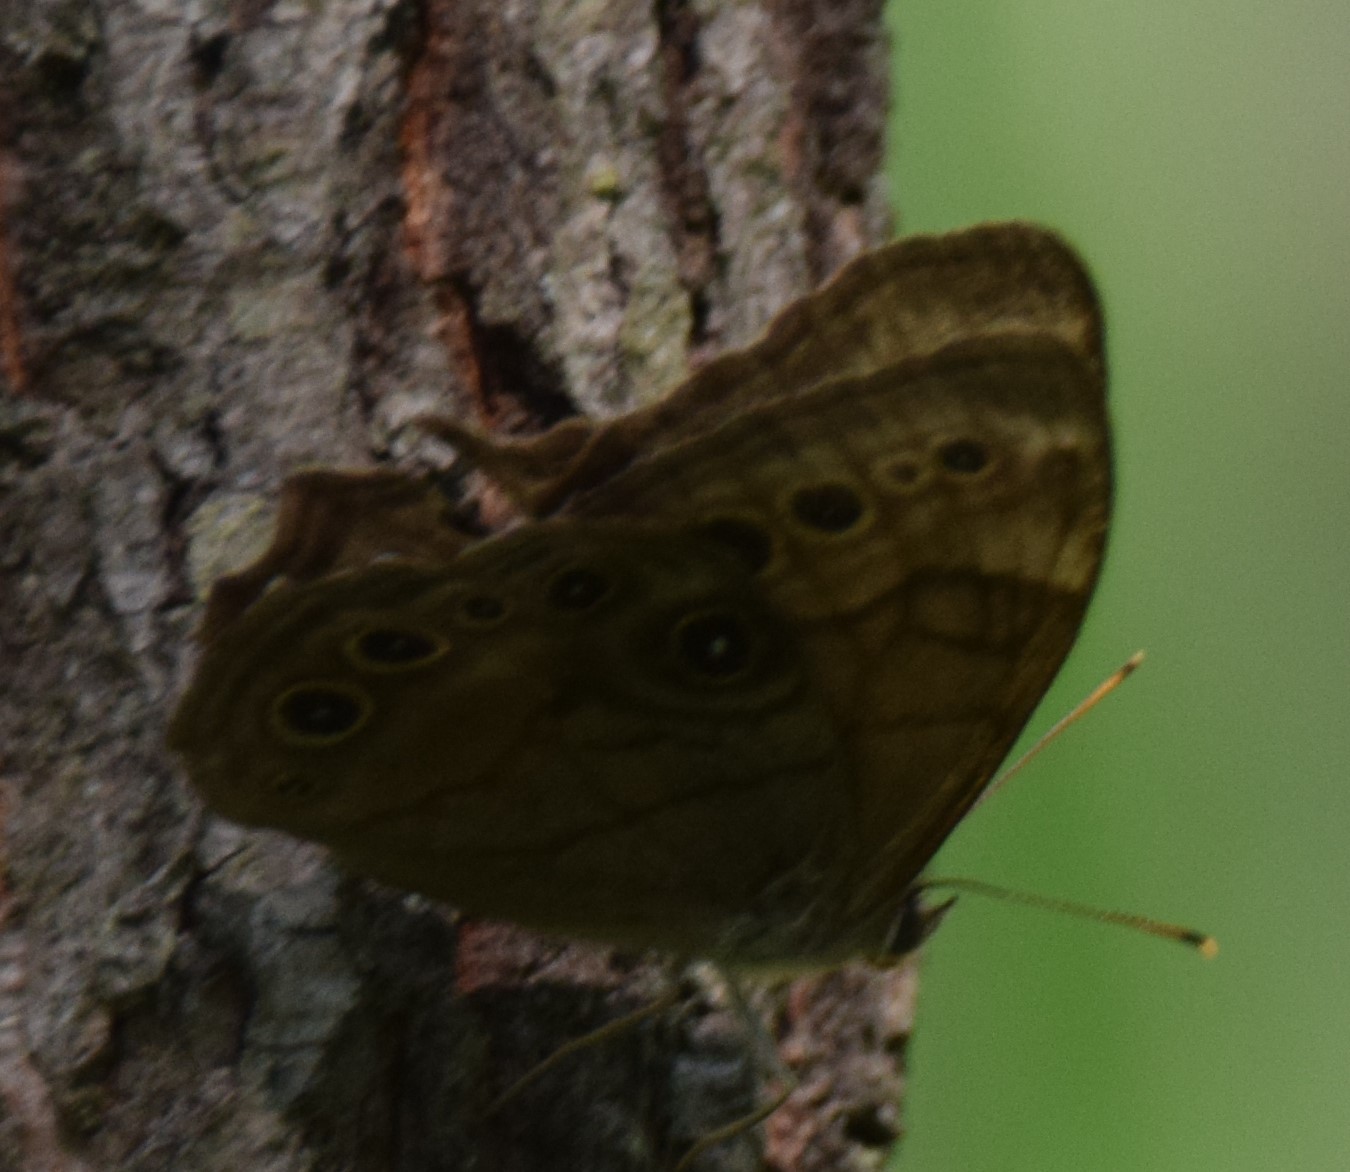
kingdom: Animalia
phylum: Arthropoda
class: Insecta
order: Lepidoptera
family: Nymphalidae
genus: Lethe
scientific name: Lethe anthedon
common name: Northern pearly-eye
